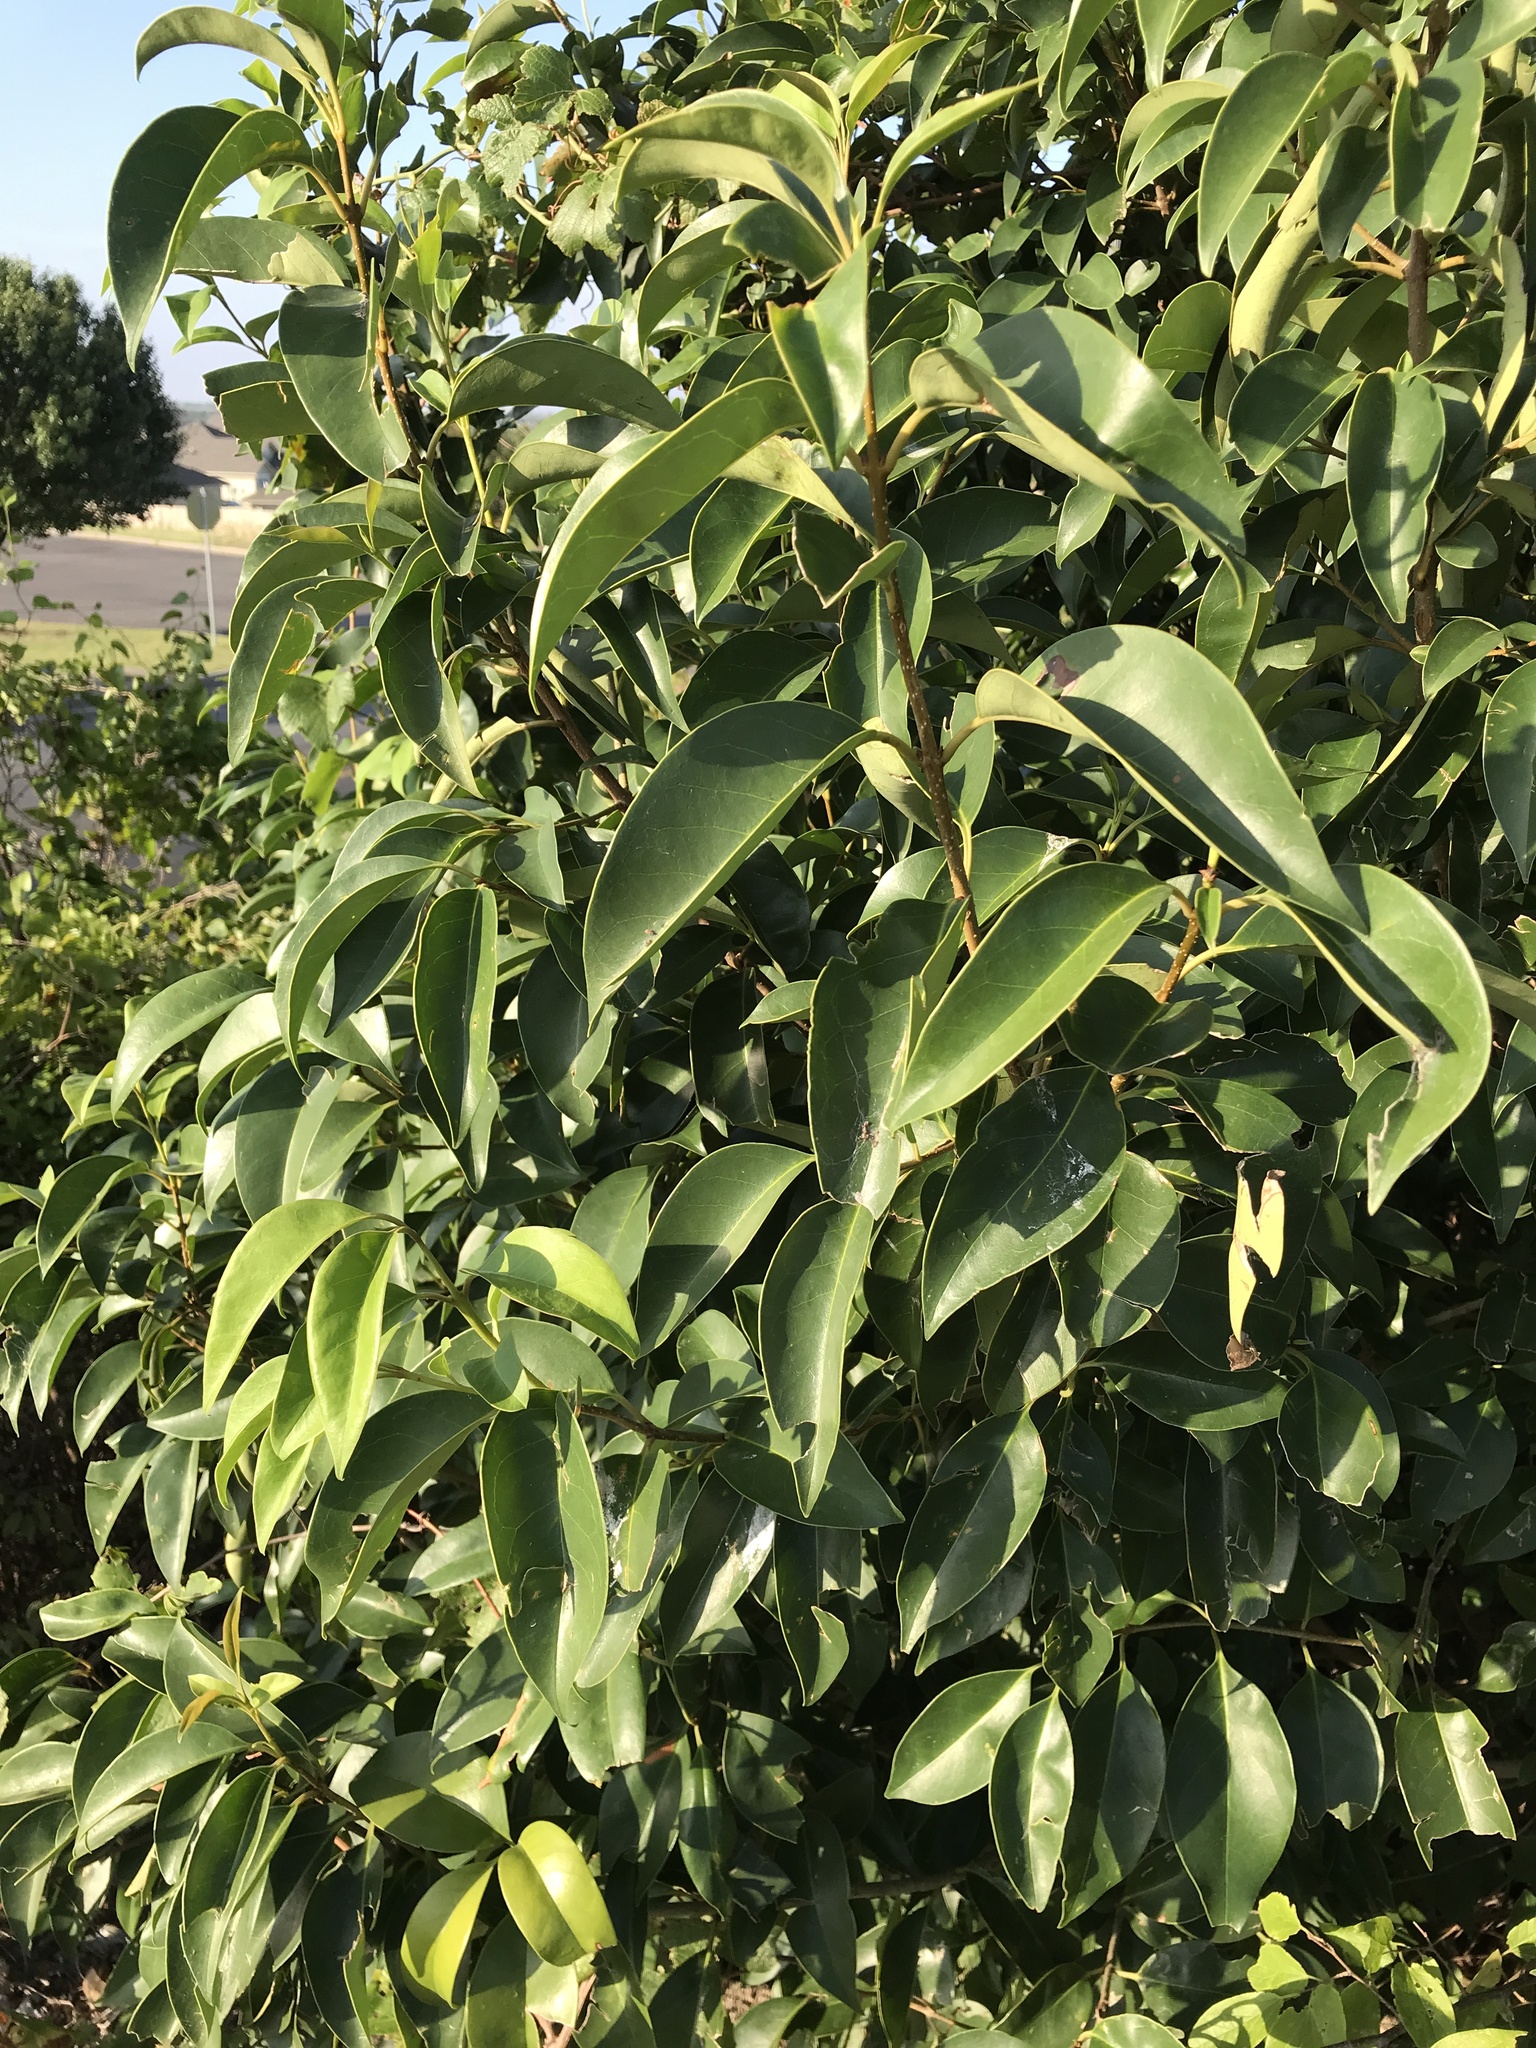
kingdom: Plantae
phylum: Tracheophyta
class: Magnoliopsida
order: Lamiales
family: Oleaceae
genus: Ligustrum
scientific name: Ligustrum lucidum
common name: Glossy privet
